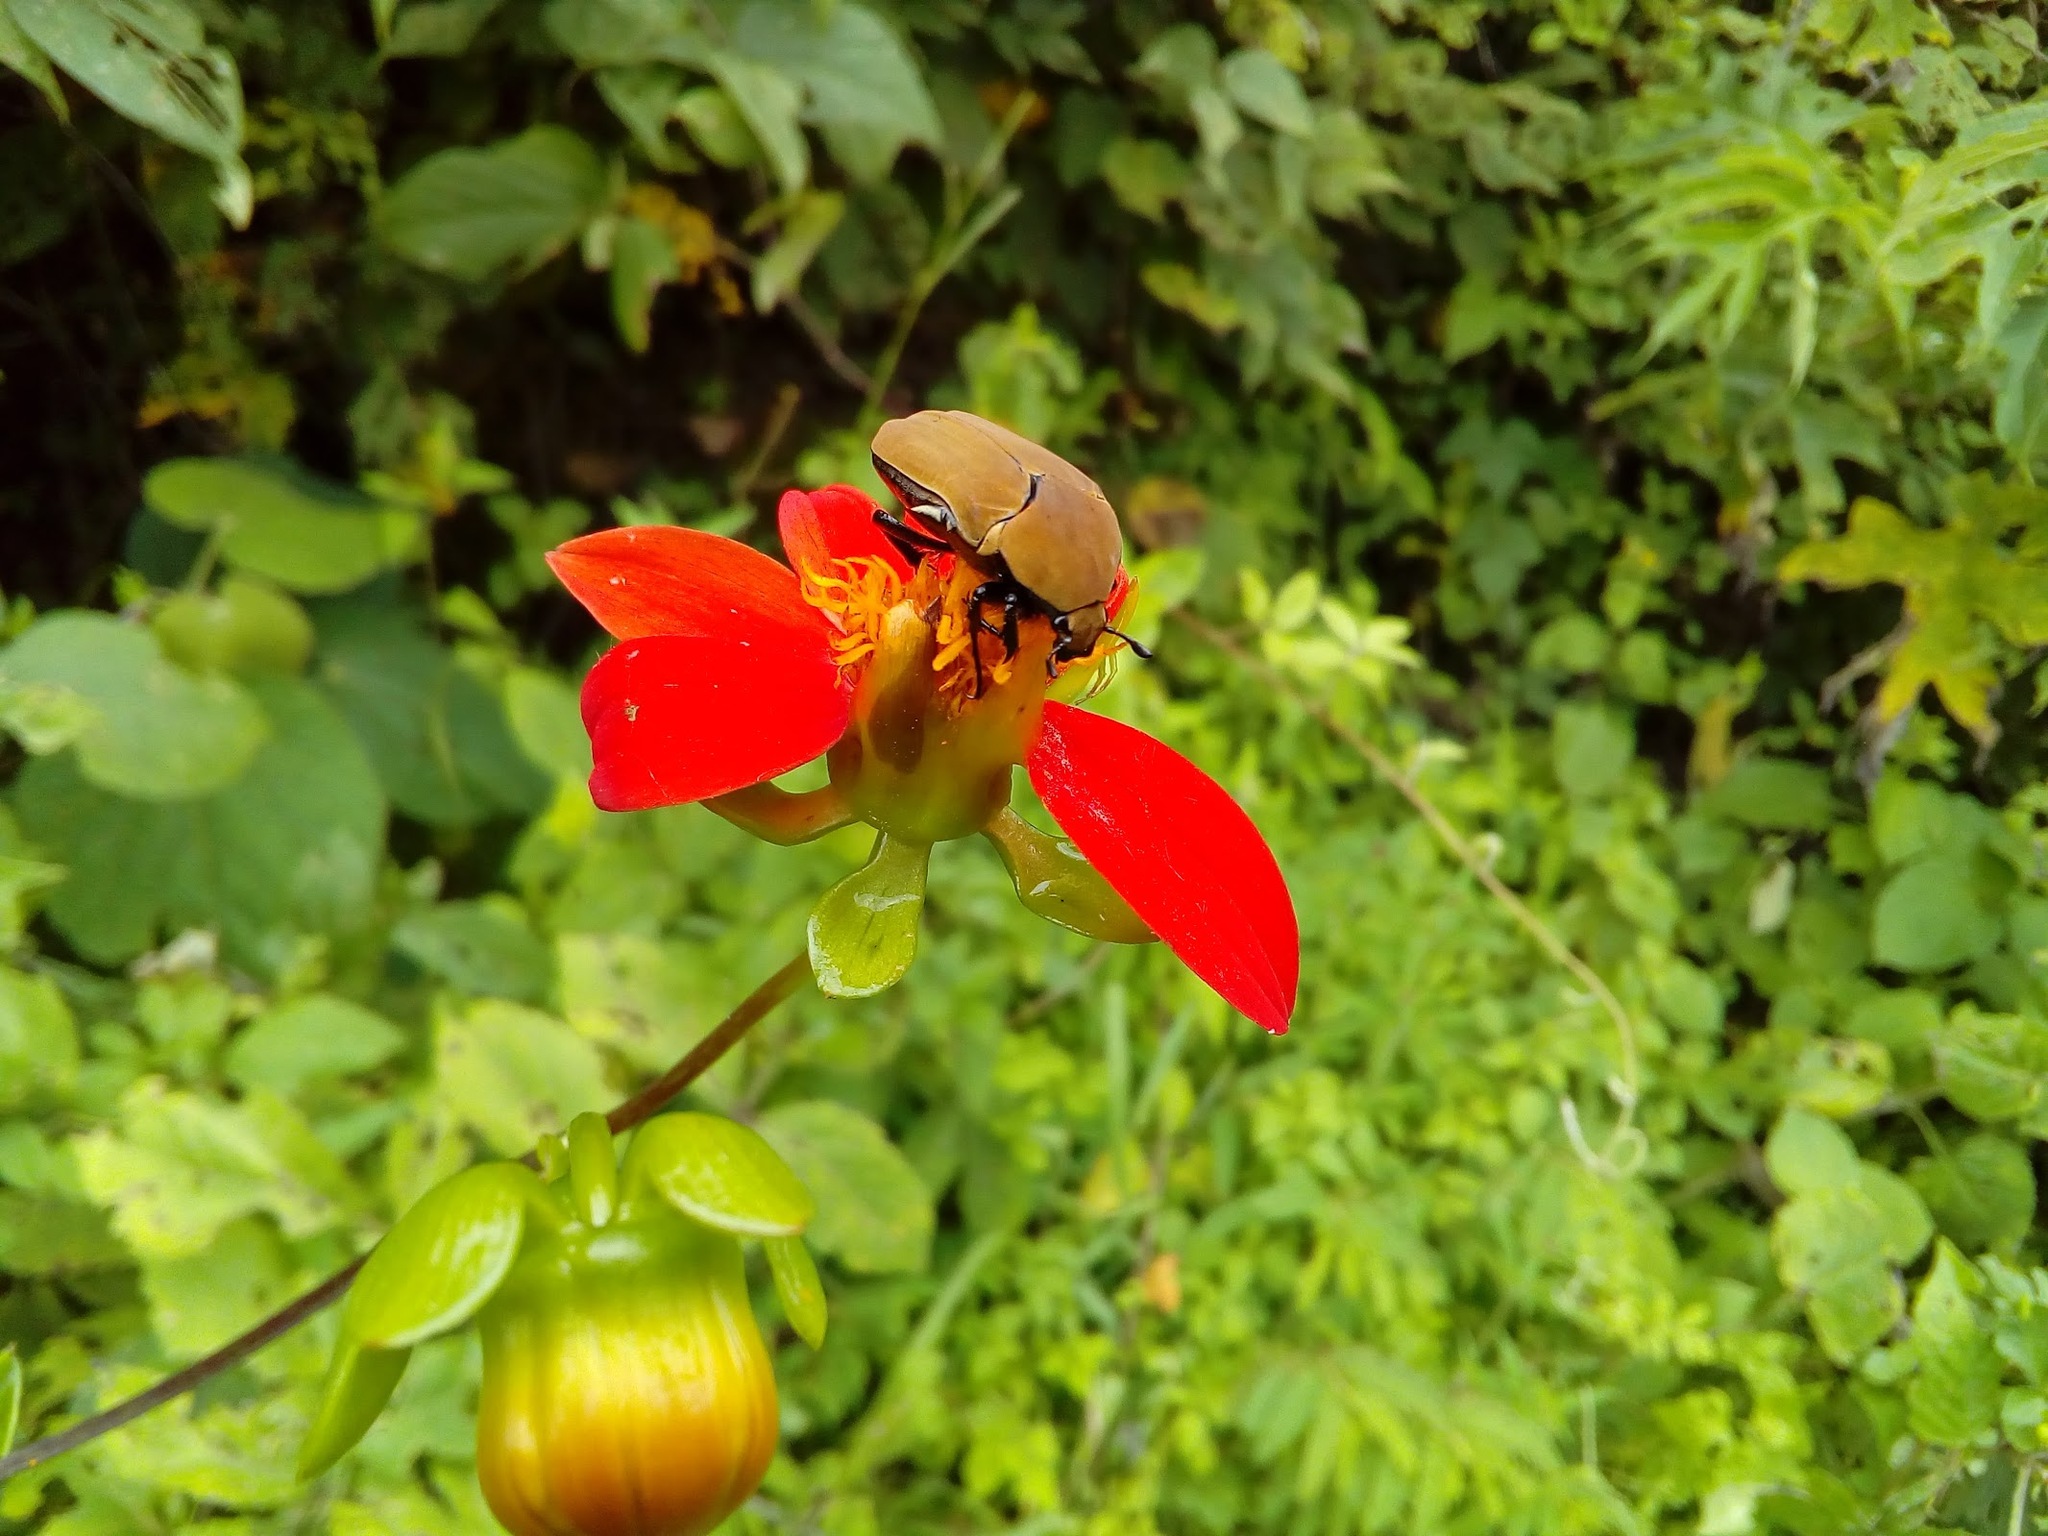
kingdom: Animalia
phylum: Arthropoda
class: Insecta
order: Coleoptera
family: Scarabaeidae
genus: Hologymnetis
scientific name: Hologymnetis cinerea
